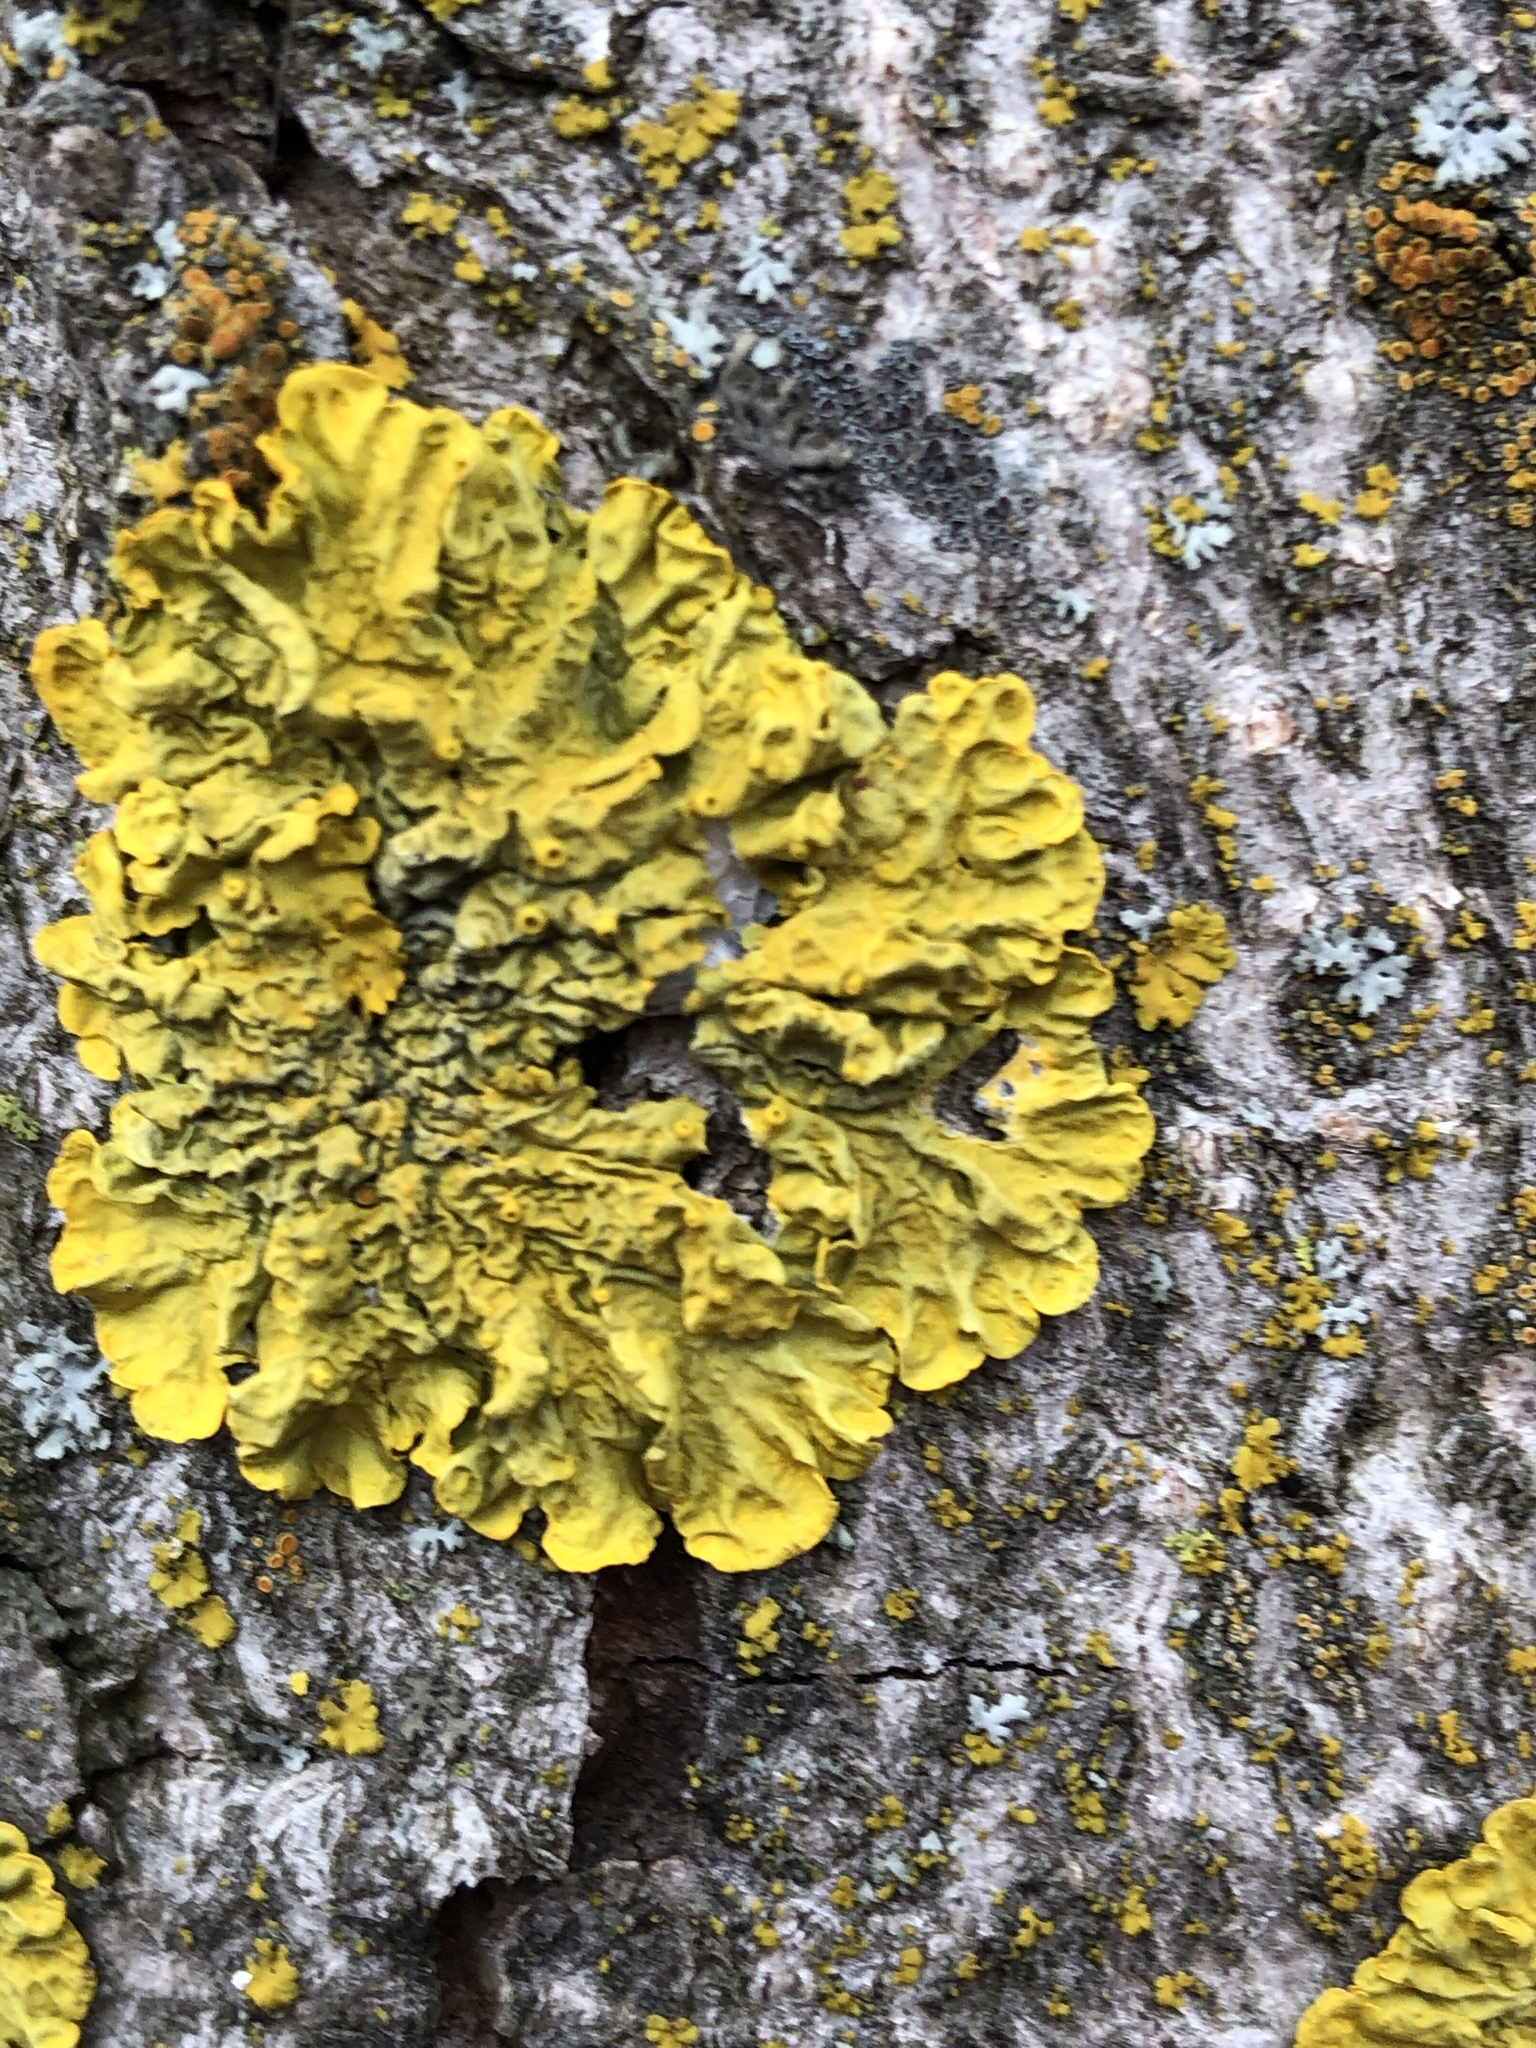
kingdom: Fungi
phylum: Ascomycota
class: Lecanoromycetes
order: Teloschistales
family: Teloschistaceae
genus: Xanthoria
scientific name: Xanthoria parietina
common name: Common orange lichen
